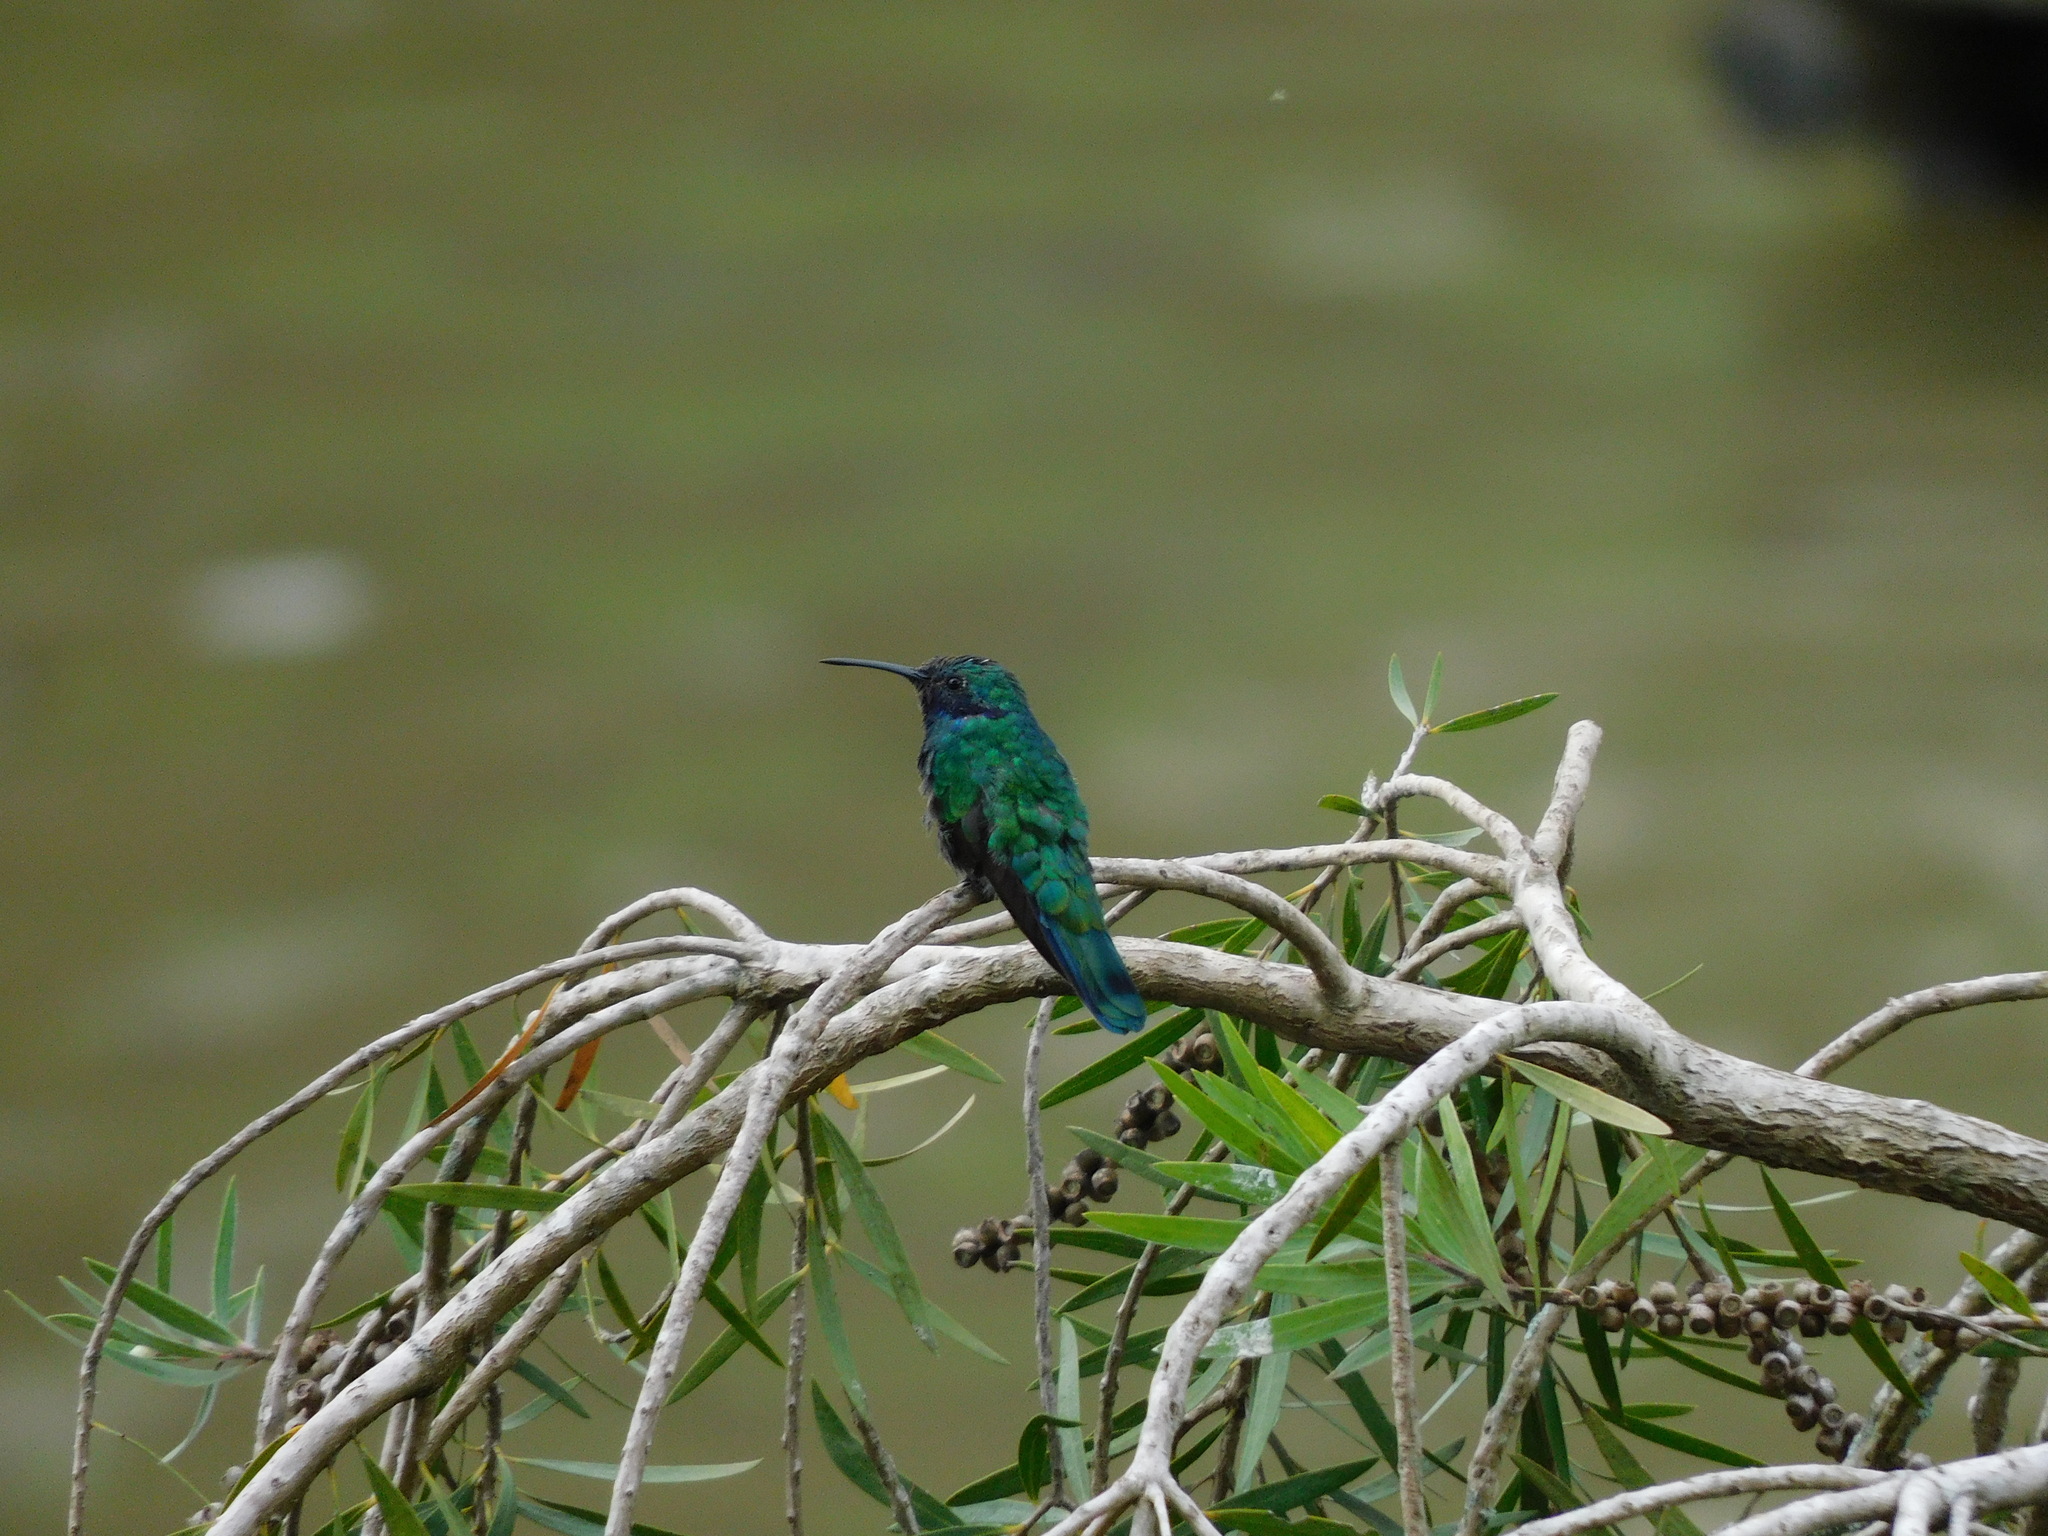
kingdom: Animalia
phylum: Chordata
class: Aves
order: Apodiformes
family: Trochilidae
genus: Colibri
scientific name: Colibri cyanotus
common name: Lesser violetear
